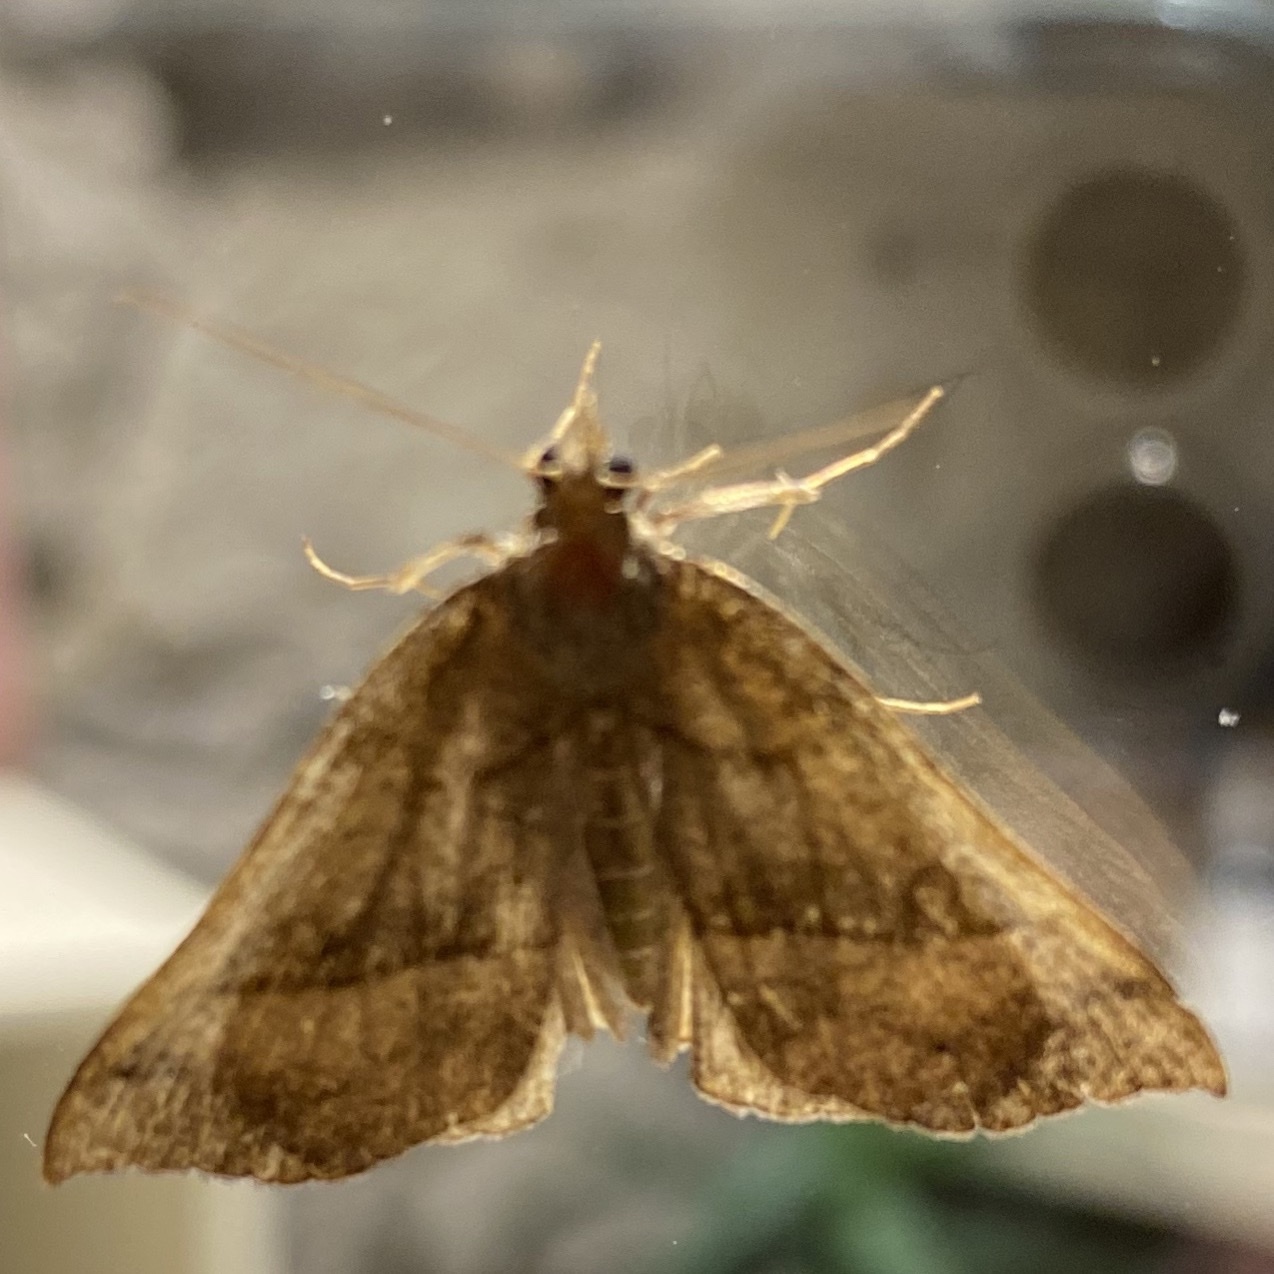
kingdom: Animalia
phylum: Arthropoda
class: Insecta
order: Lepidoptera
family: Erebidae
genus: Hypena
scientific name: Hypena proboscidalis
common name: Snout
